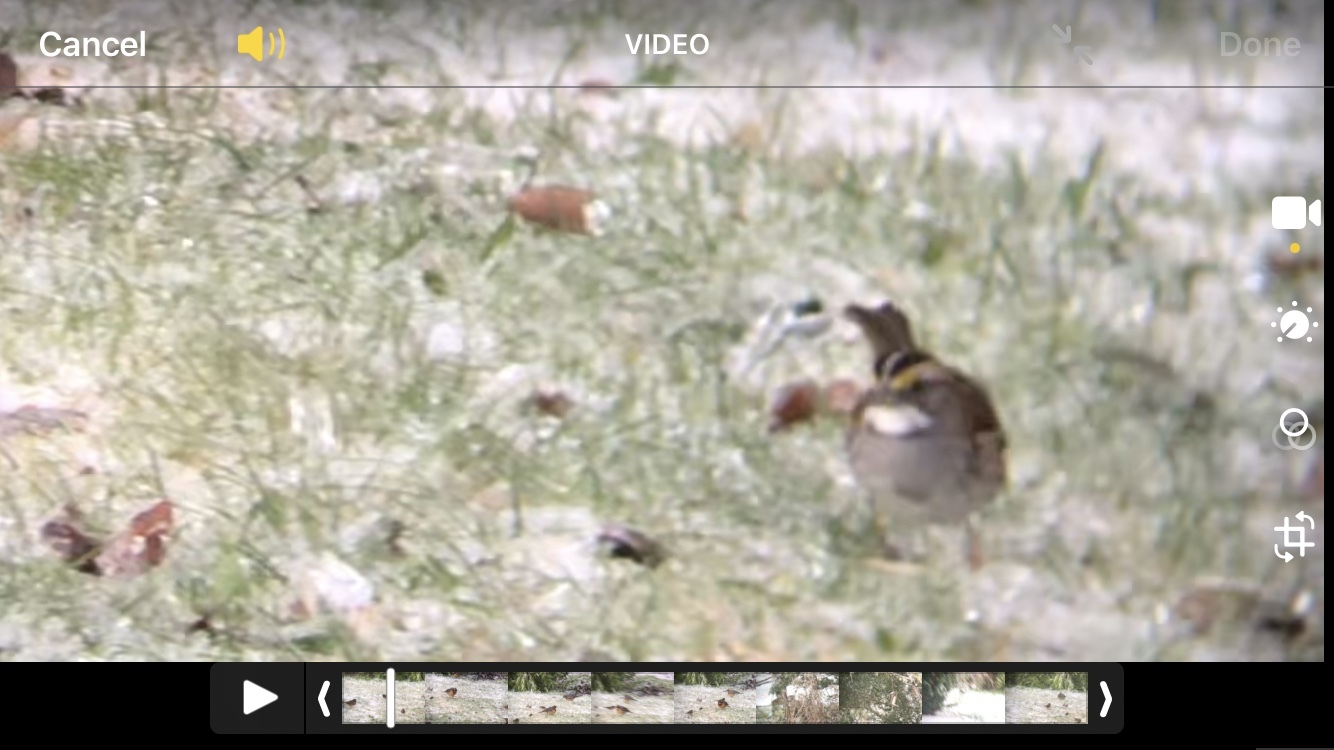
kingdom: Animalia
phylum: Chordata
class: Aves
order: Passeriformes
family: Passerellidae
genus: Zonotrichia
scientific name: Zonotrichia albicollis
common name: White-throated sparrow
